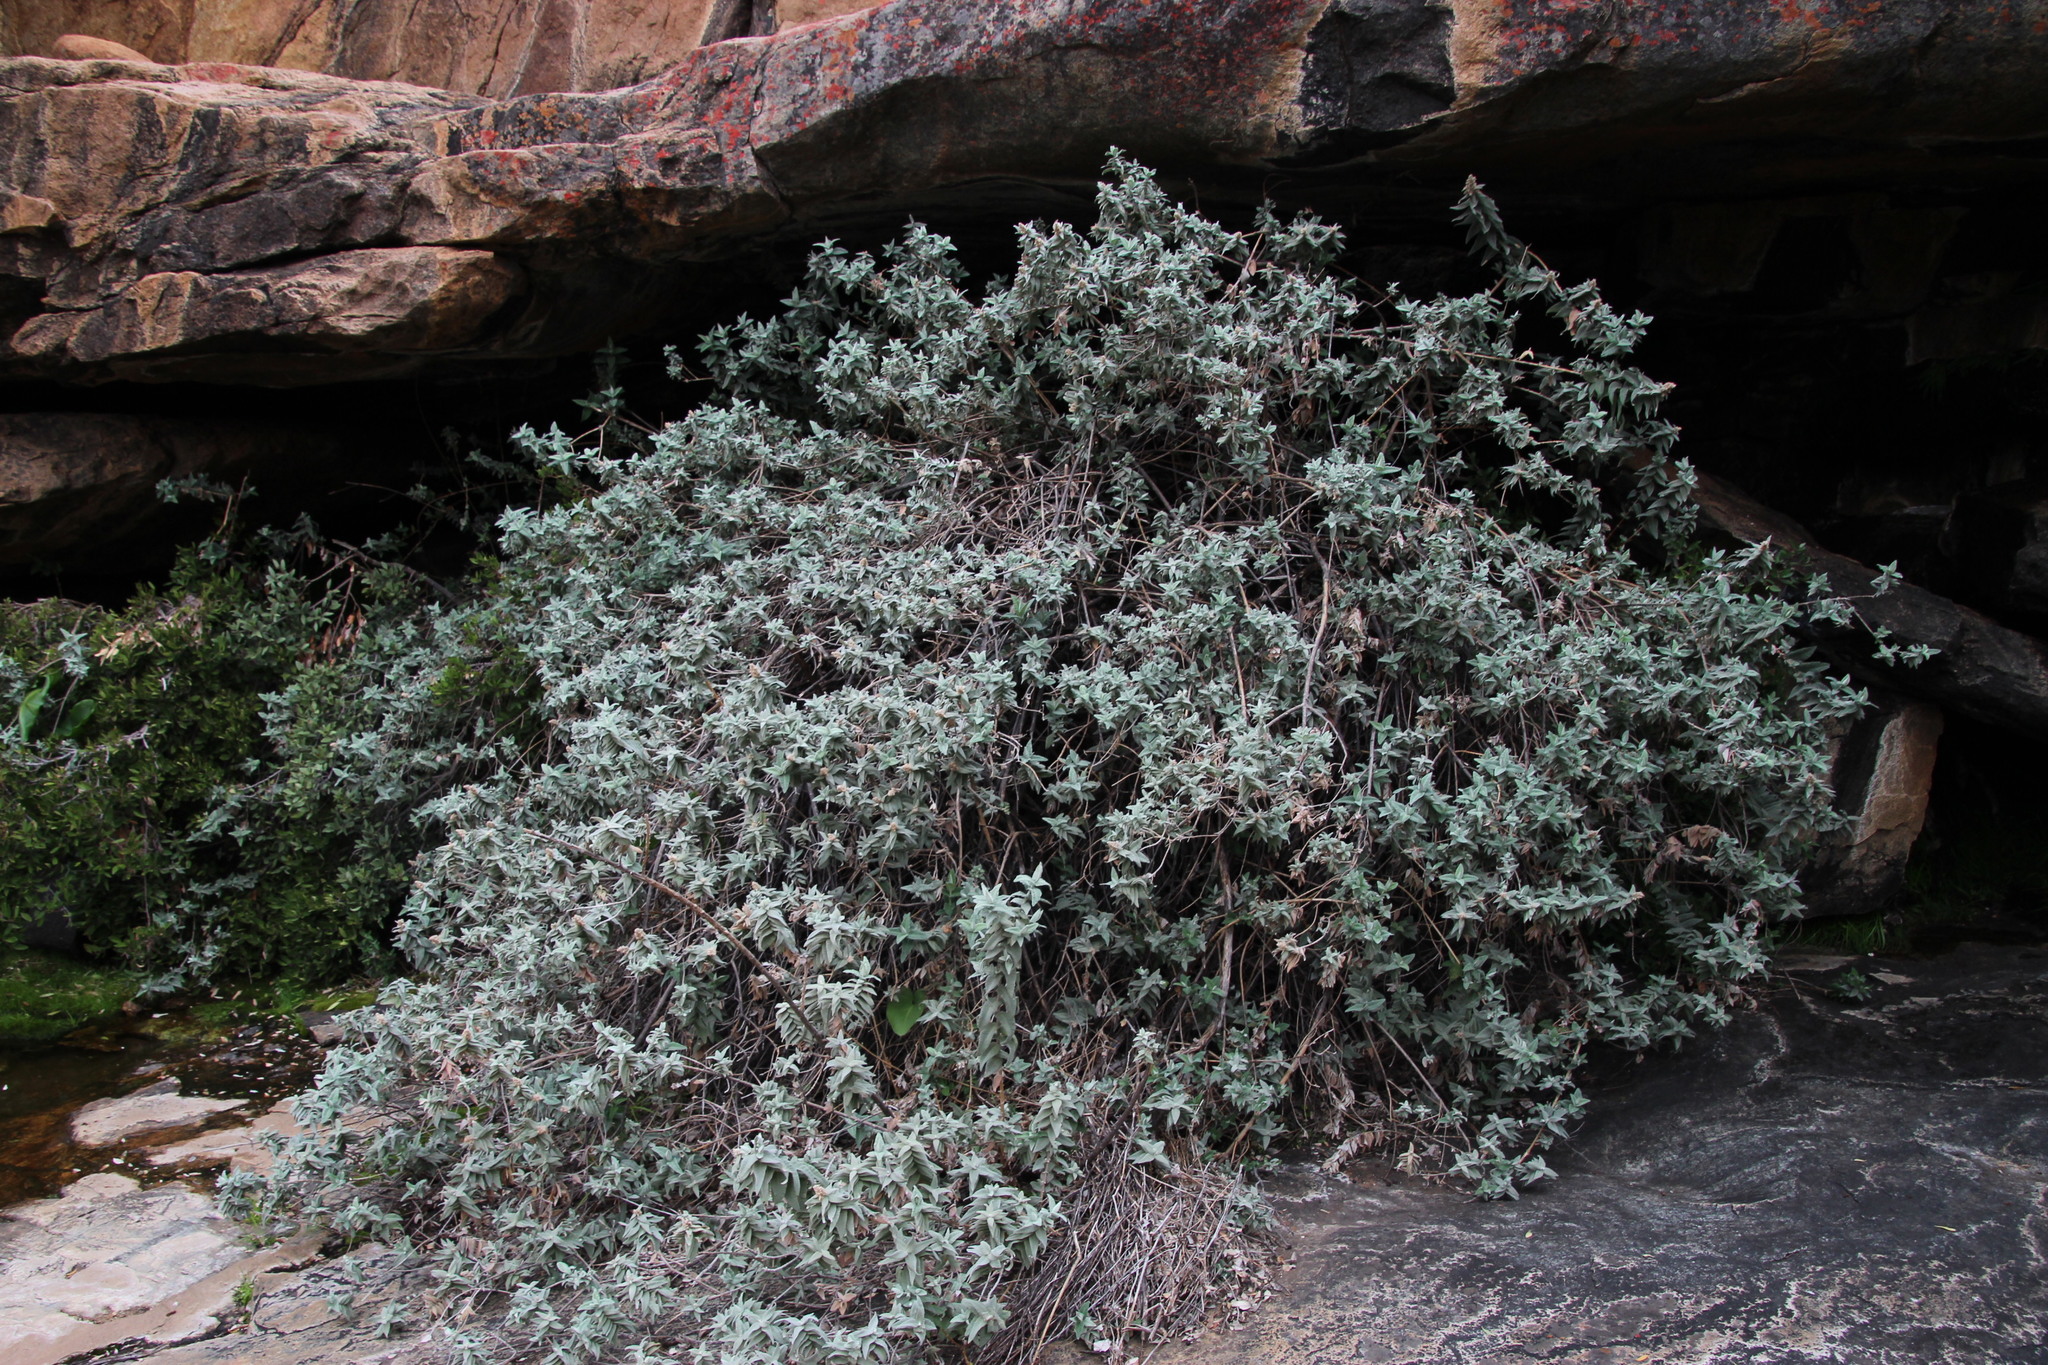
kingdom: Plantae
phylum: Tracheophyta
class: Magnoliopsida
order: Lamiales
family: Scrophulariaceae
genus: Buddleja
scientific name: Buddleja salviifolia
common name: Sagewood
